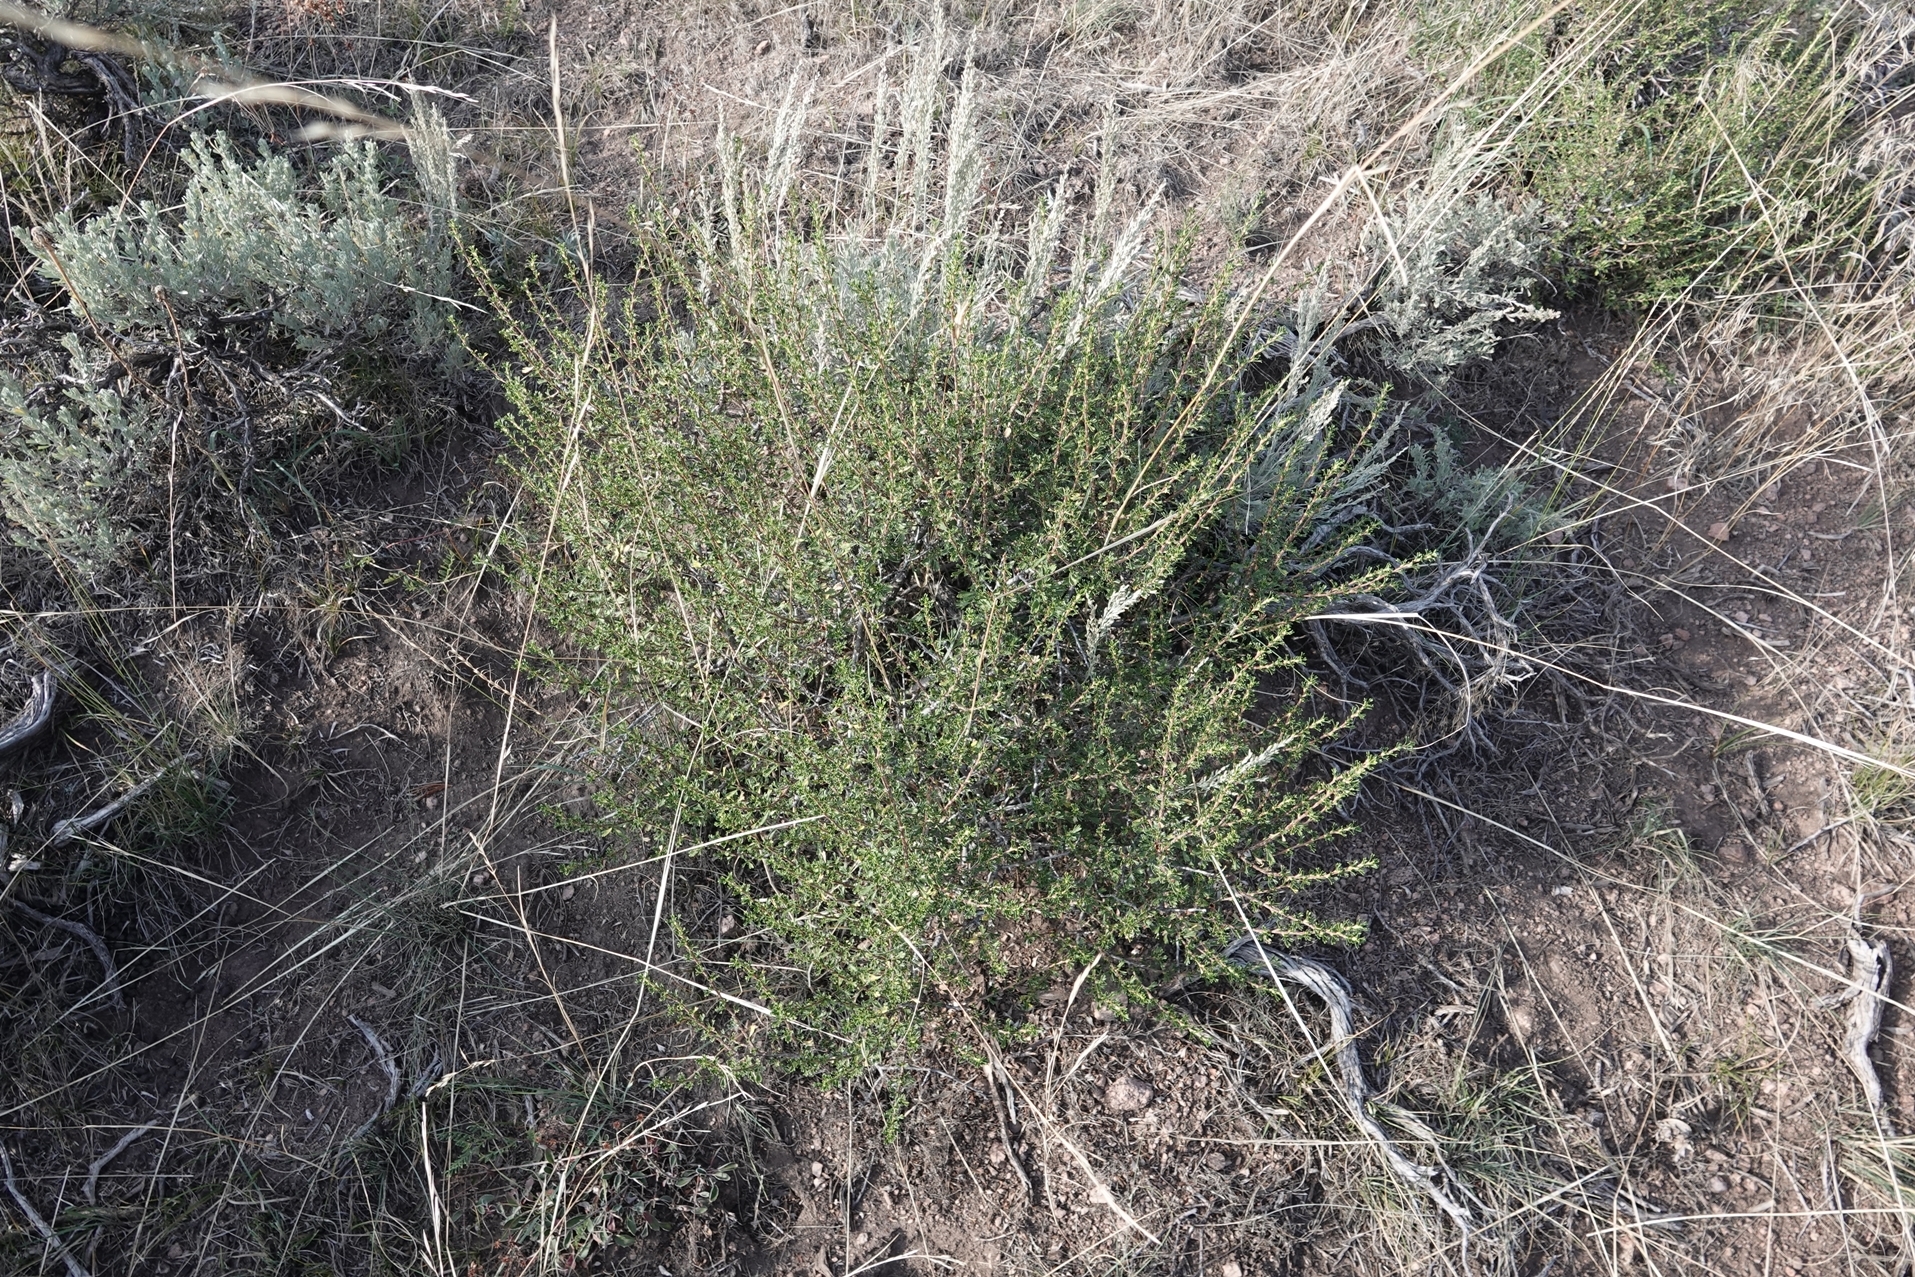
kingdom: Plantae
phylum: Tracheophyta
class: Magnoliopsida
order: Rosales
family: Rosaceae
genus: Purshia
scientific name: Purshia tridentata
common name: Antelope bitterbrush
